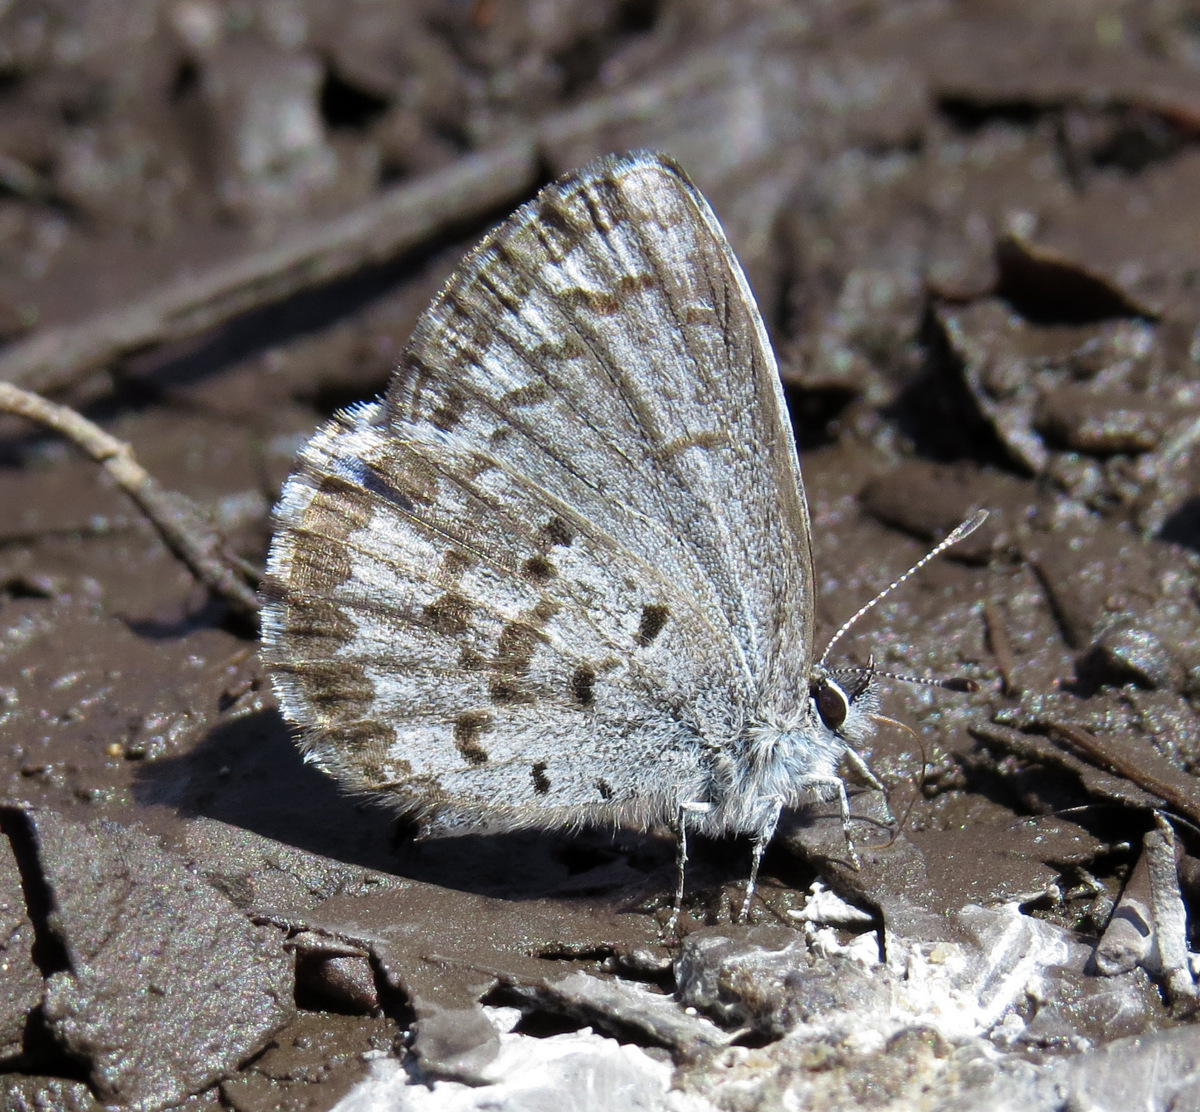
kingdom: Animalia
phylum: Arthropoda
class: Insecta
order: Lepidoptera
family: Lycaenidae
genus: Celastrina
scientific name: Celastrina ladon
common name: Spring azure
